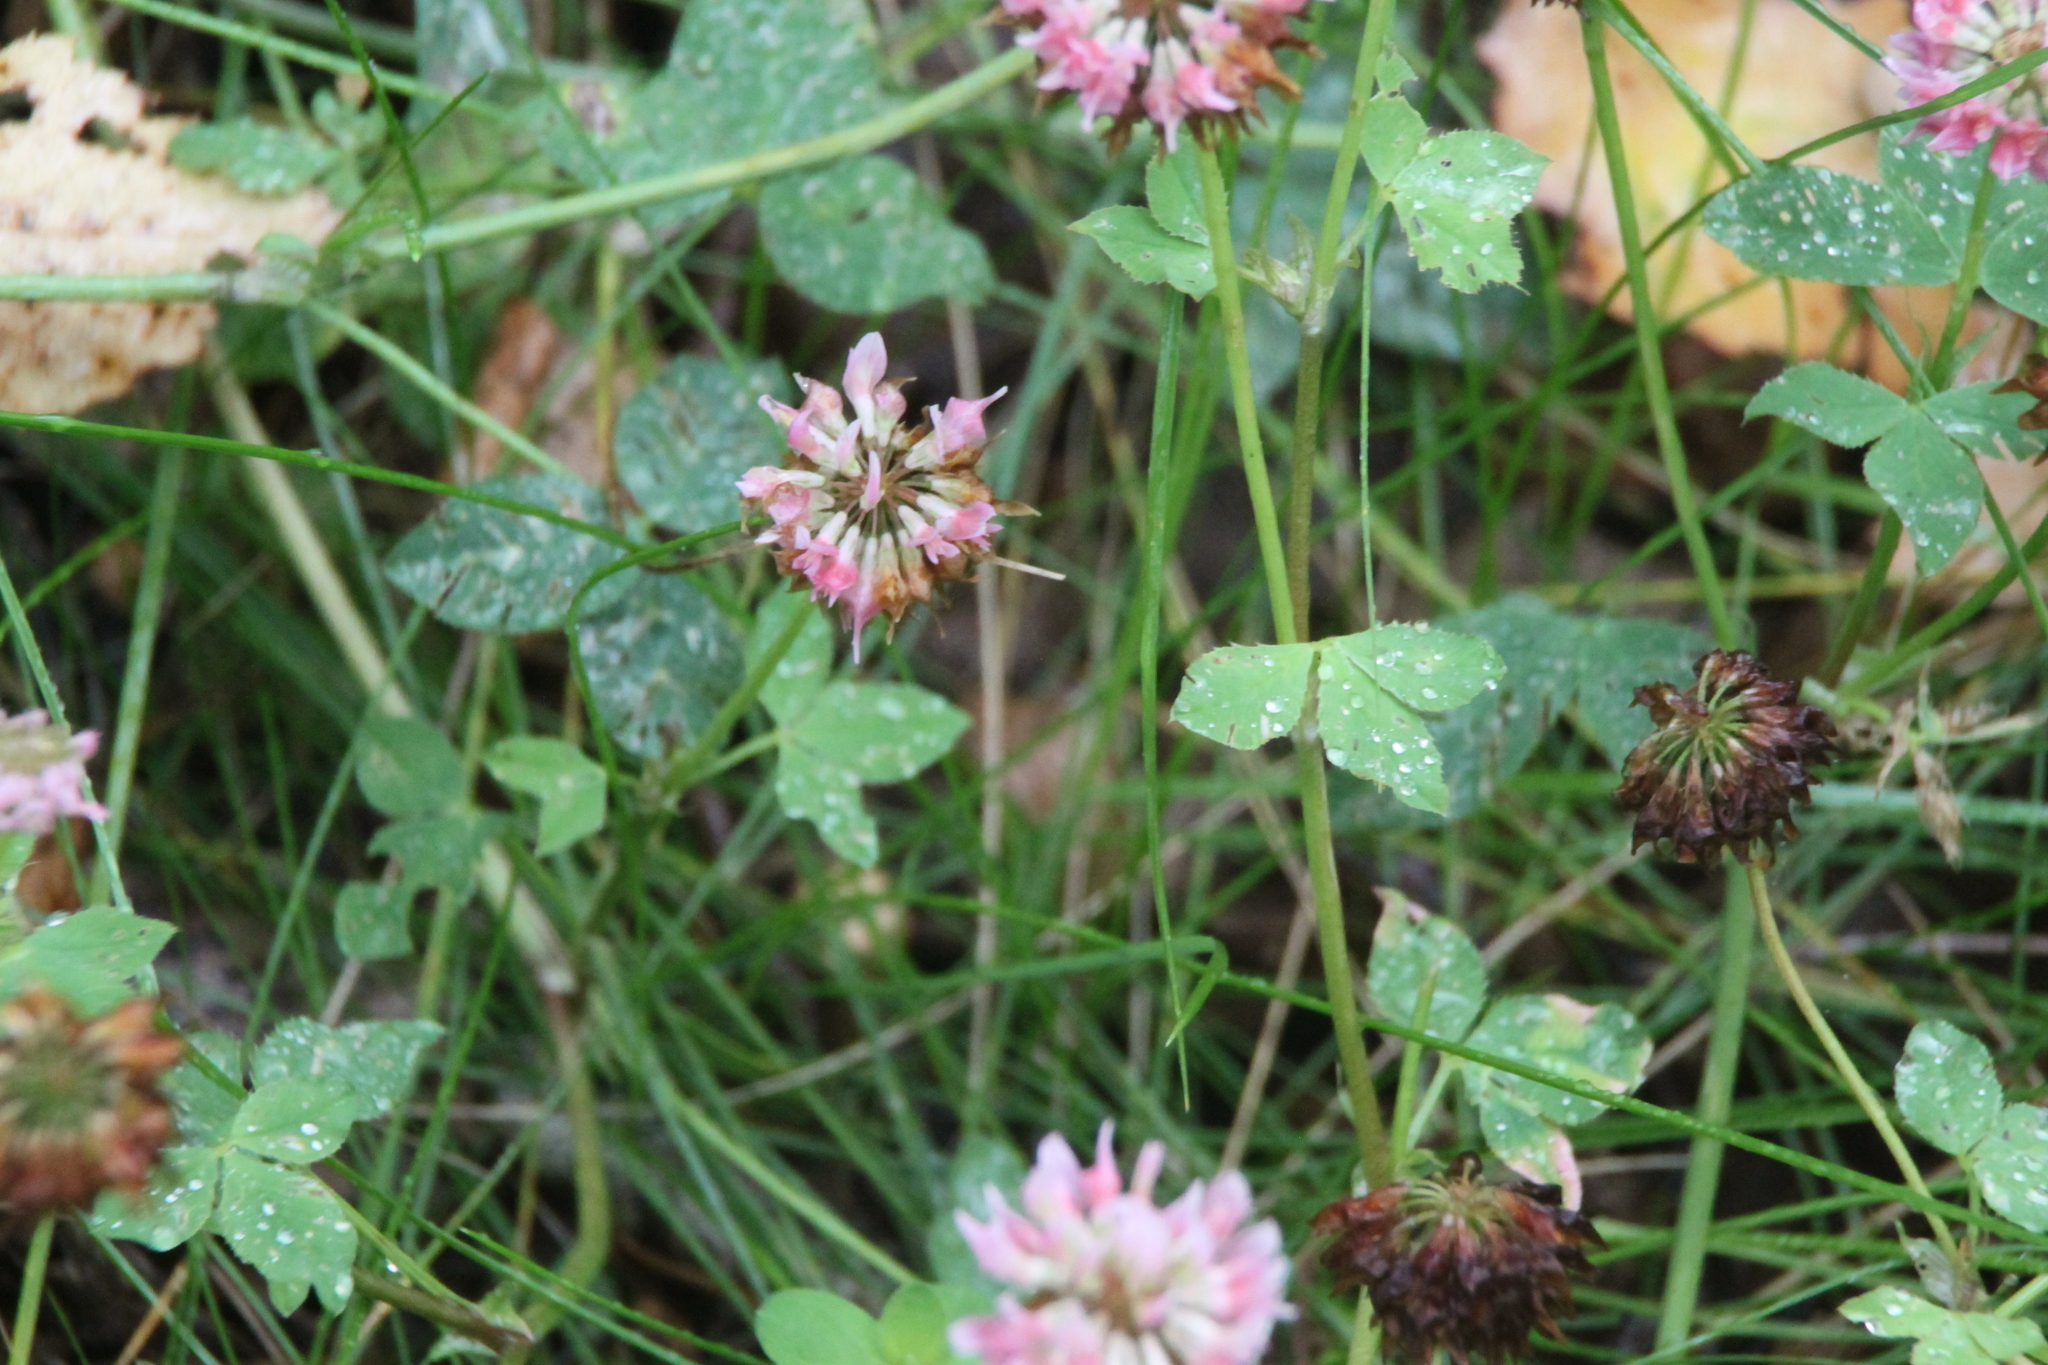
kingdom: Plantae
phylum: Tracheophyta
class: Magnoliopsida
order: Fabales
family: Fabaceae
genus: Trifolium
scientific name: Trifolium hybridum
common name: Alsike clover
